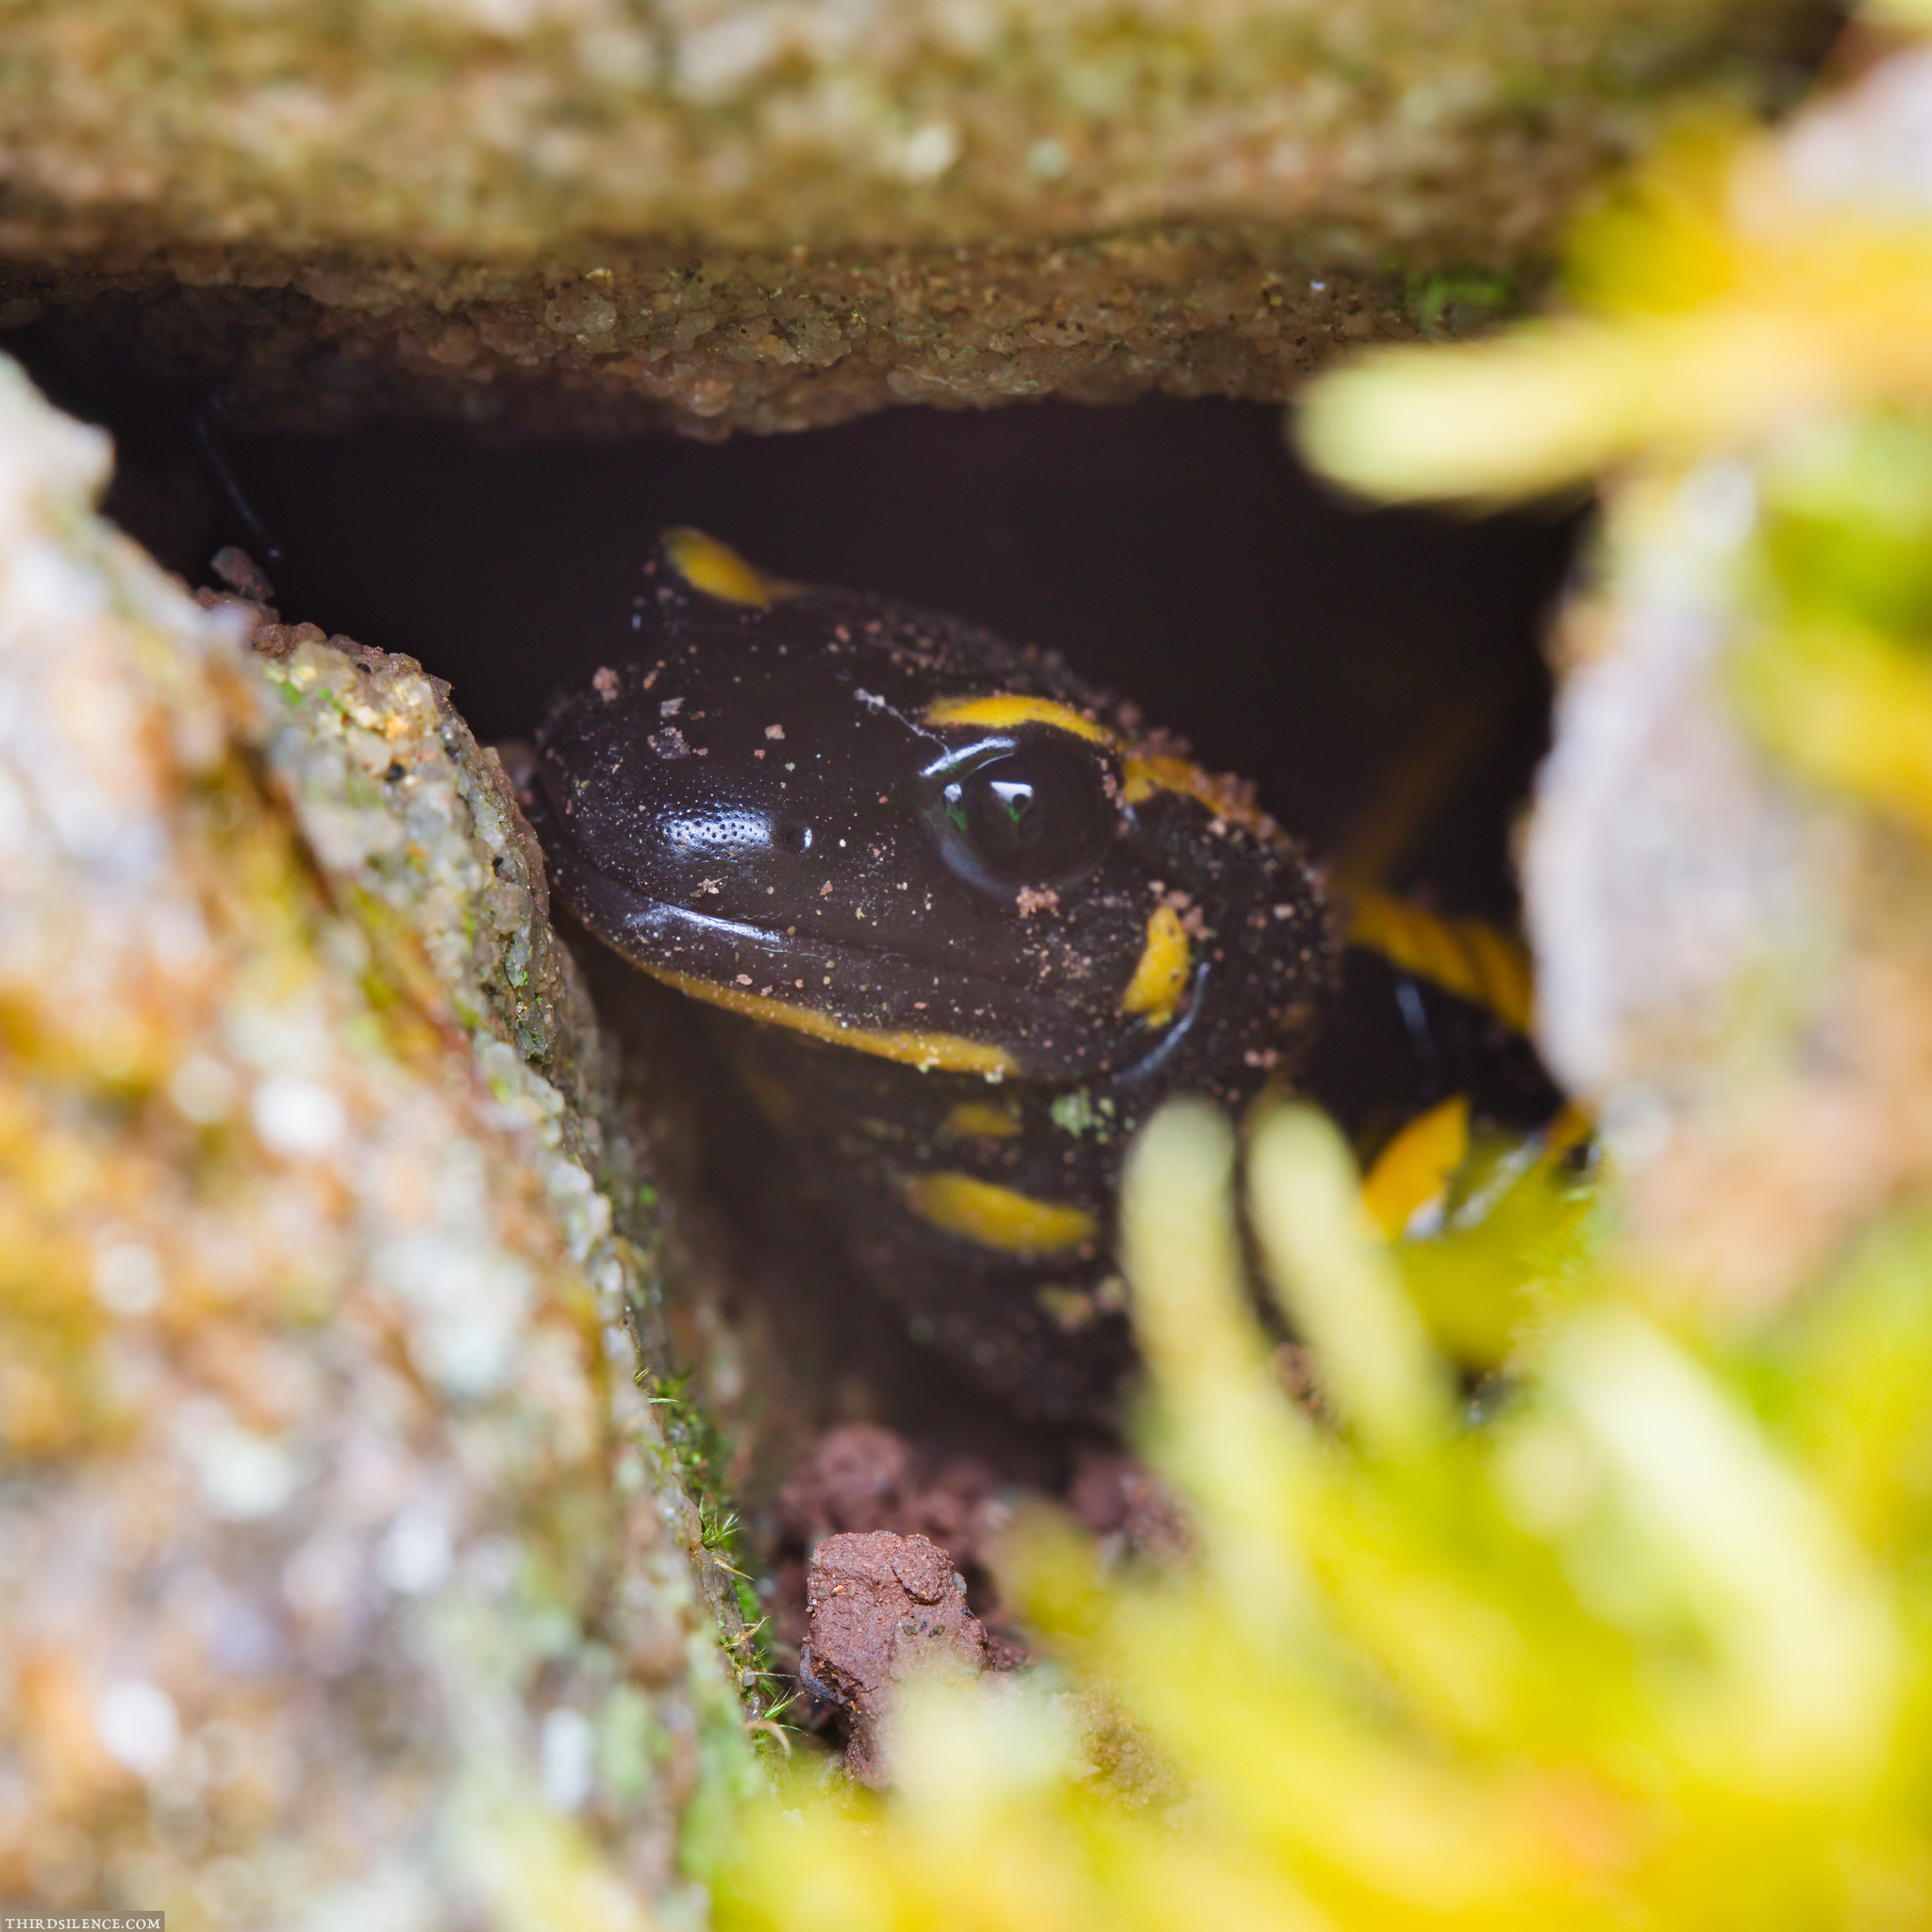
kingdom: Animalia
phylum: Chordata
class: Amphibia
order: Caudata
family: Salamandridae
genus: Salamandra
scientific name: Salamandra salamandra
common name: Fire salamander
